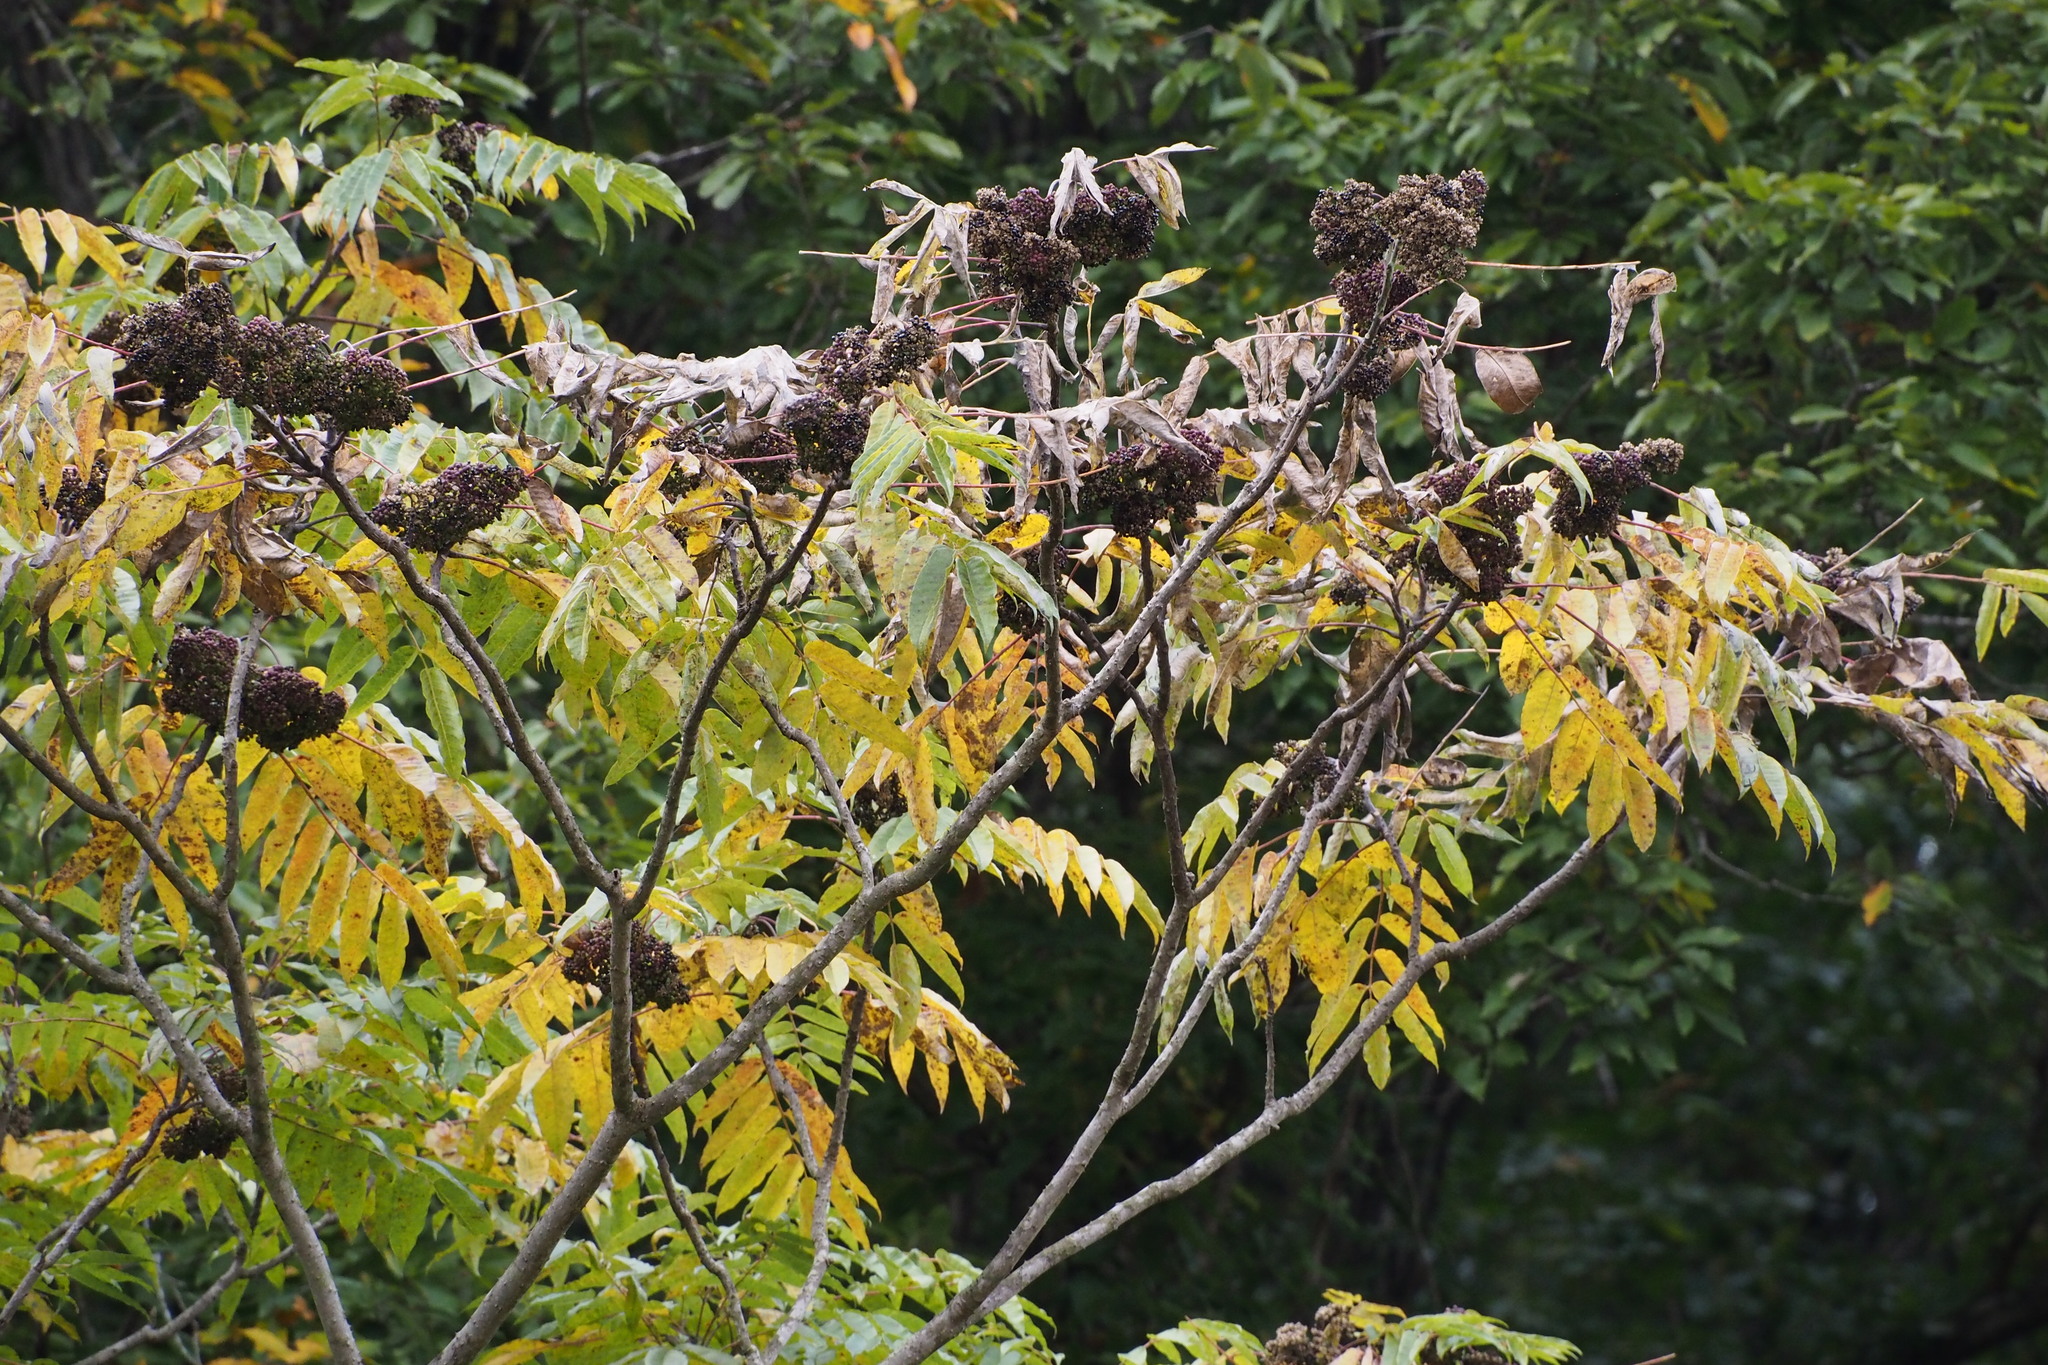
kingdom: Plantae
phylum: Tracheophyta
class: Magnoliopsida
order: Sapindales
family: Rutaceae
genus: Zanthoxylum
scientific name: Zanthoxylum ailanthoides
